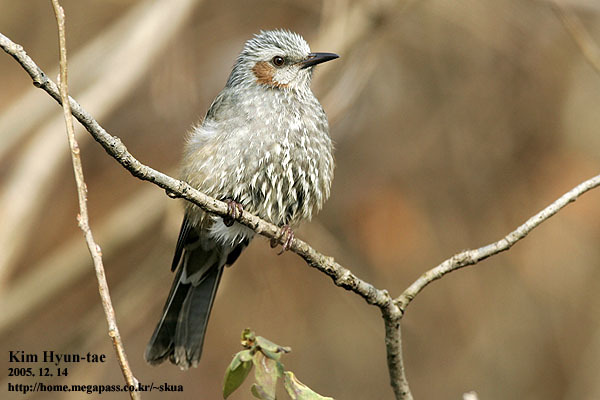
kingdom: Animalia
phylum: Chordata
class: Aves
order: Passeriformes
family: Pycnonotidae
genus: Hypsipetes
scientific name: Hypsipetes amaurotis
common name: Brown-eared bulbul
